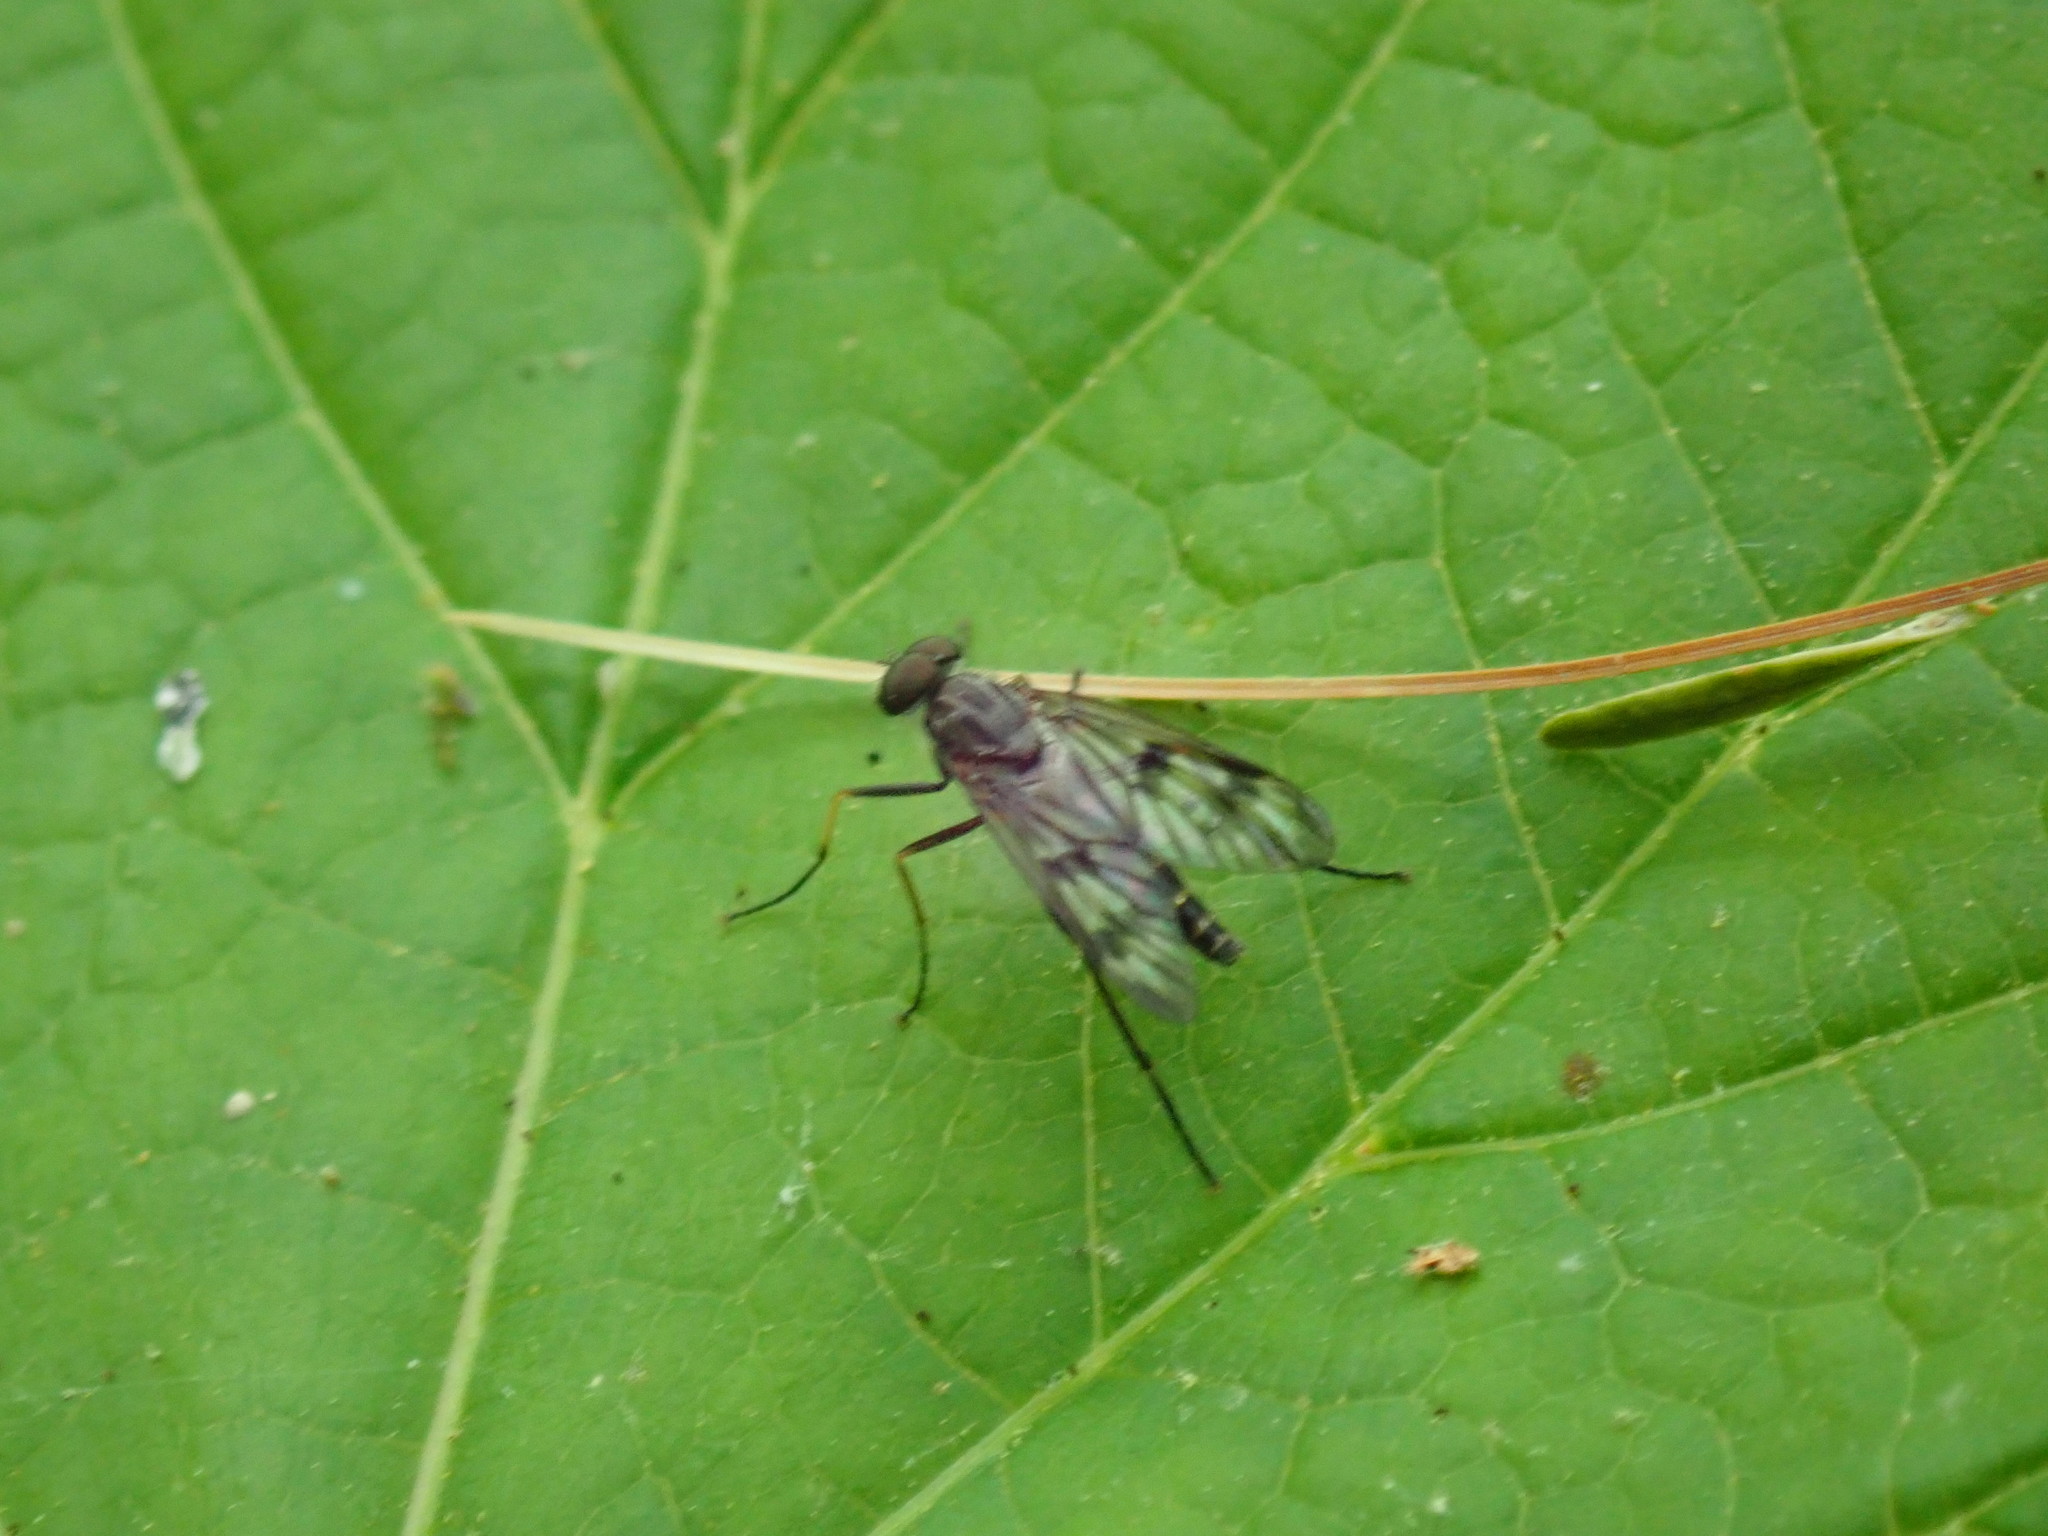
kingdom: Animalia
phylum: Arthropoda
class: Insecta
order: Diptera
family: Rhagionidae
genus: Rhagio
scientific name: Rhagio mystaceus
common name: Common snipe fly
